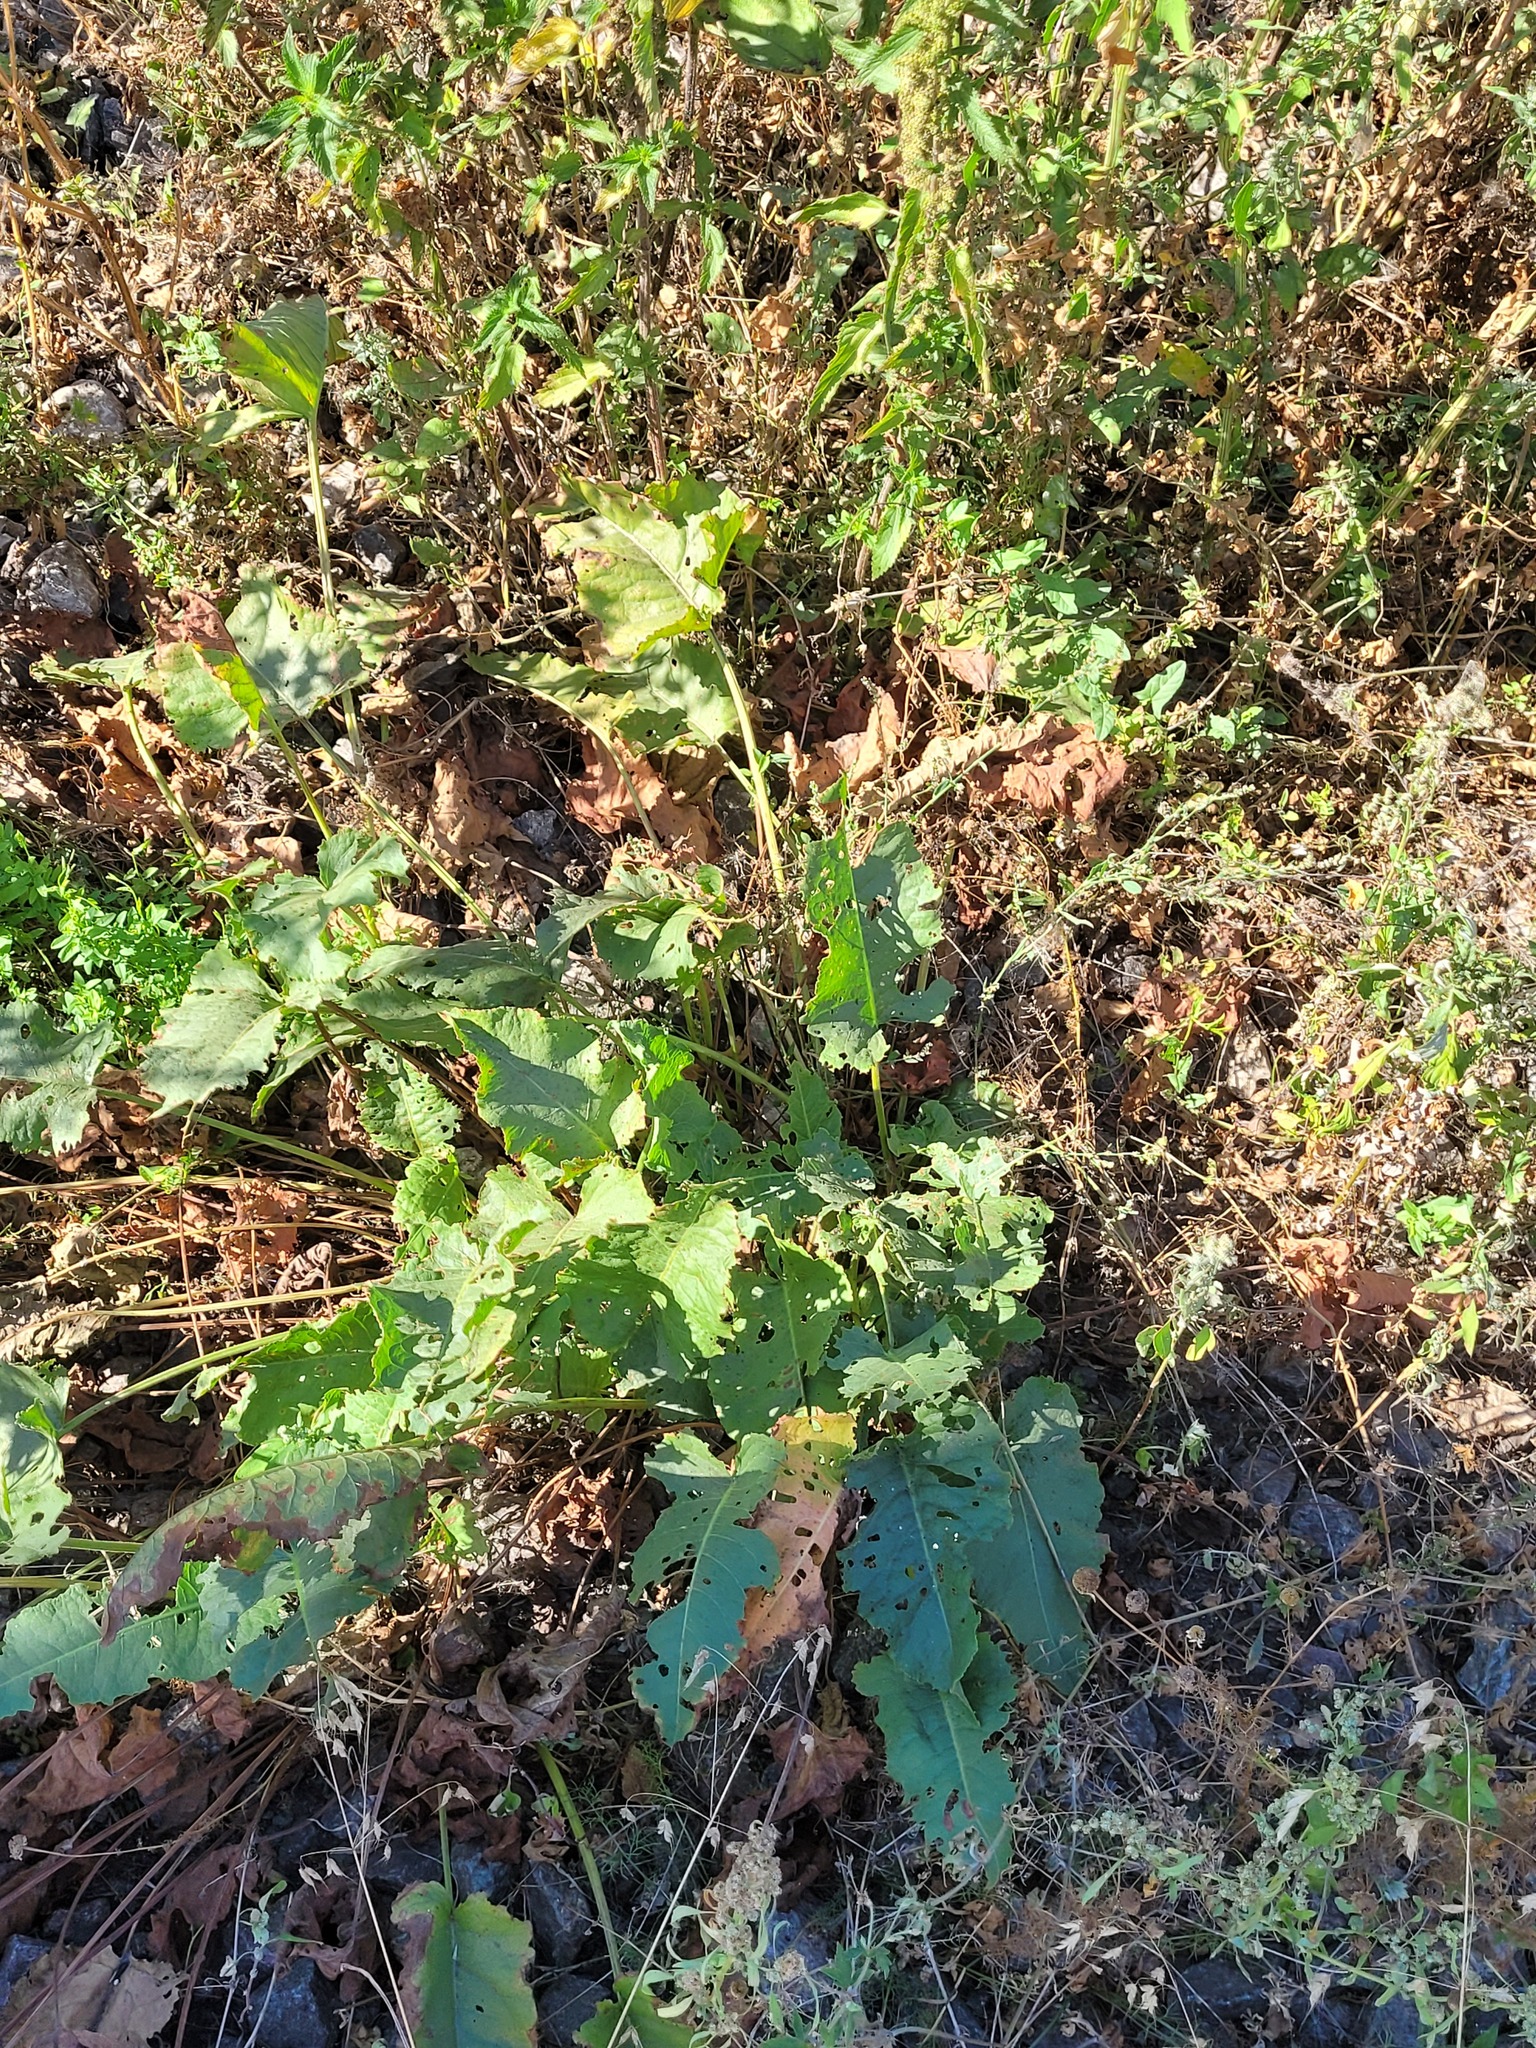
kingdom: Plantae
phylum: Tracheophyta
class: Magnoliopsida
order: Caryophyllales
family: Polygonaceae
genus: Rumex
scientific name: Rumex confertus
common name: Russian dock
